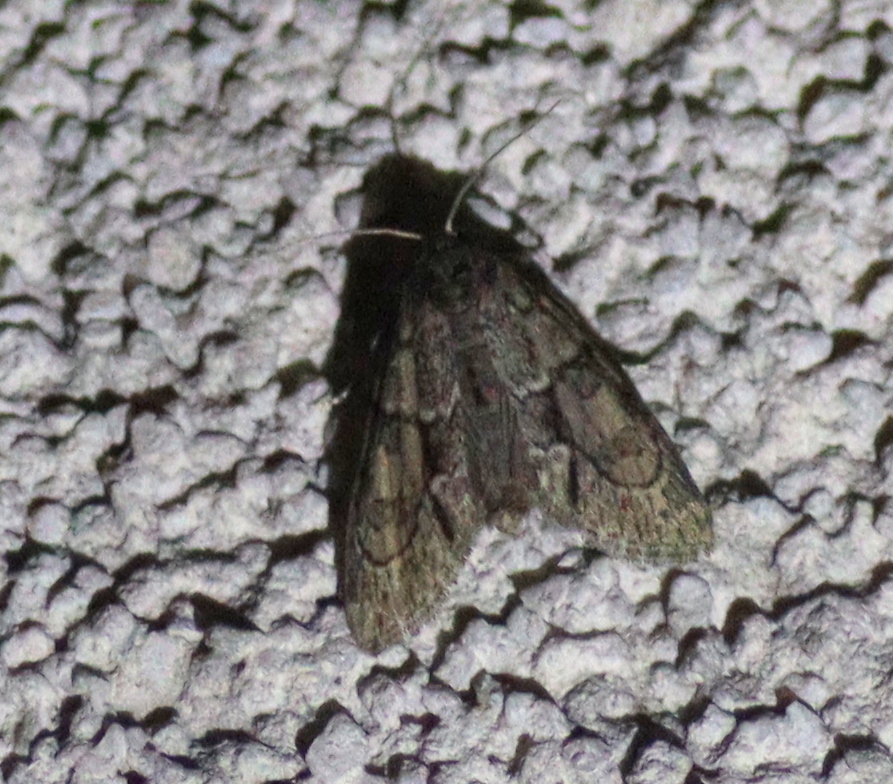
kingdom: Animalia
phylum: Arthropoda
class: Insecta
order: Lepidoptera
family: Noctuidae
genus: Cryphia
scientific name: Cryphia fraudatricula
